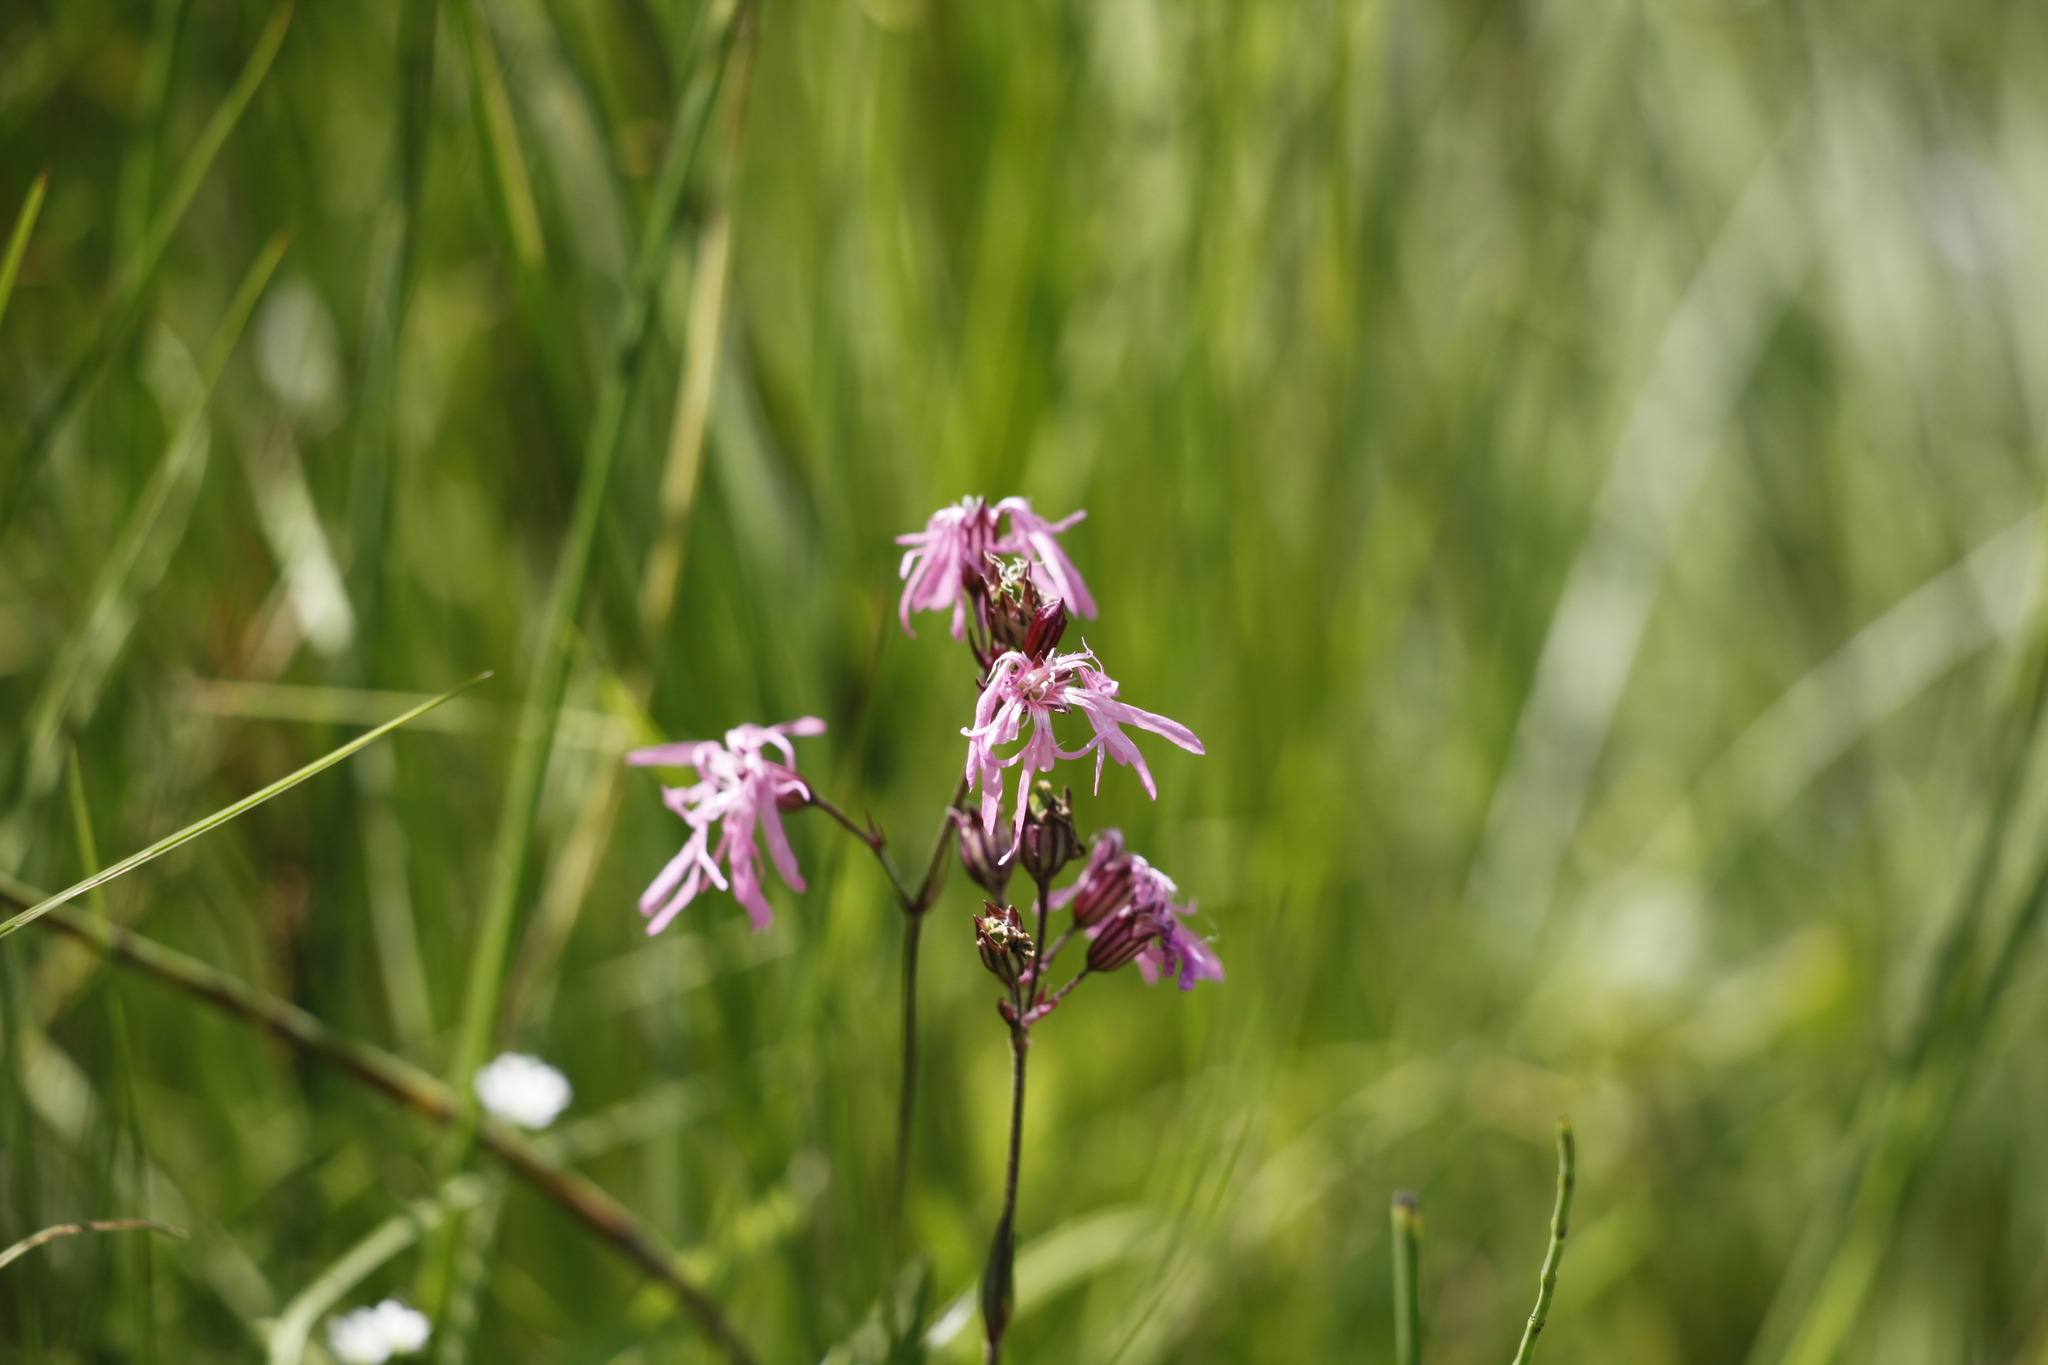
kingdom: Plantae
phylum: Tracheophyta
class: Magnoliopsida
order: Caryophyllales
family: Caryophyllaceae
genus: Silene
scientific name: Silene flos-cuculi
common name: Ragged-robin
